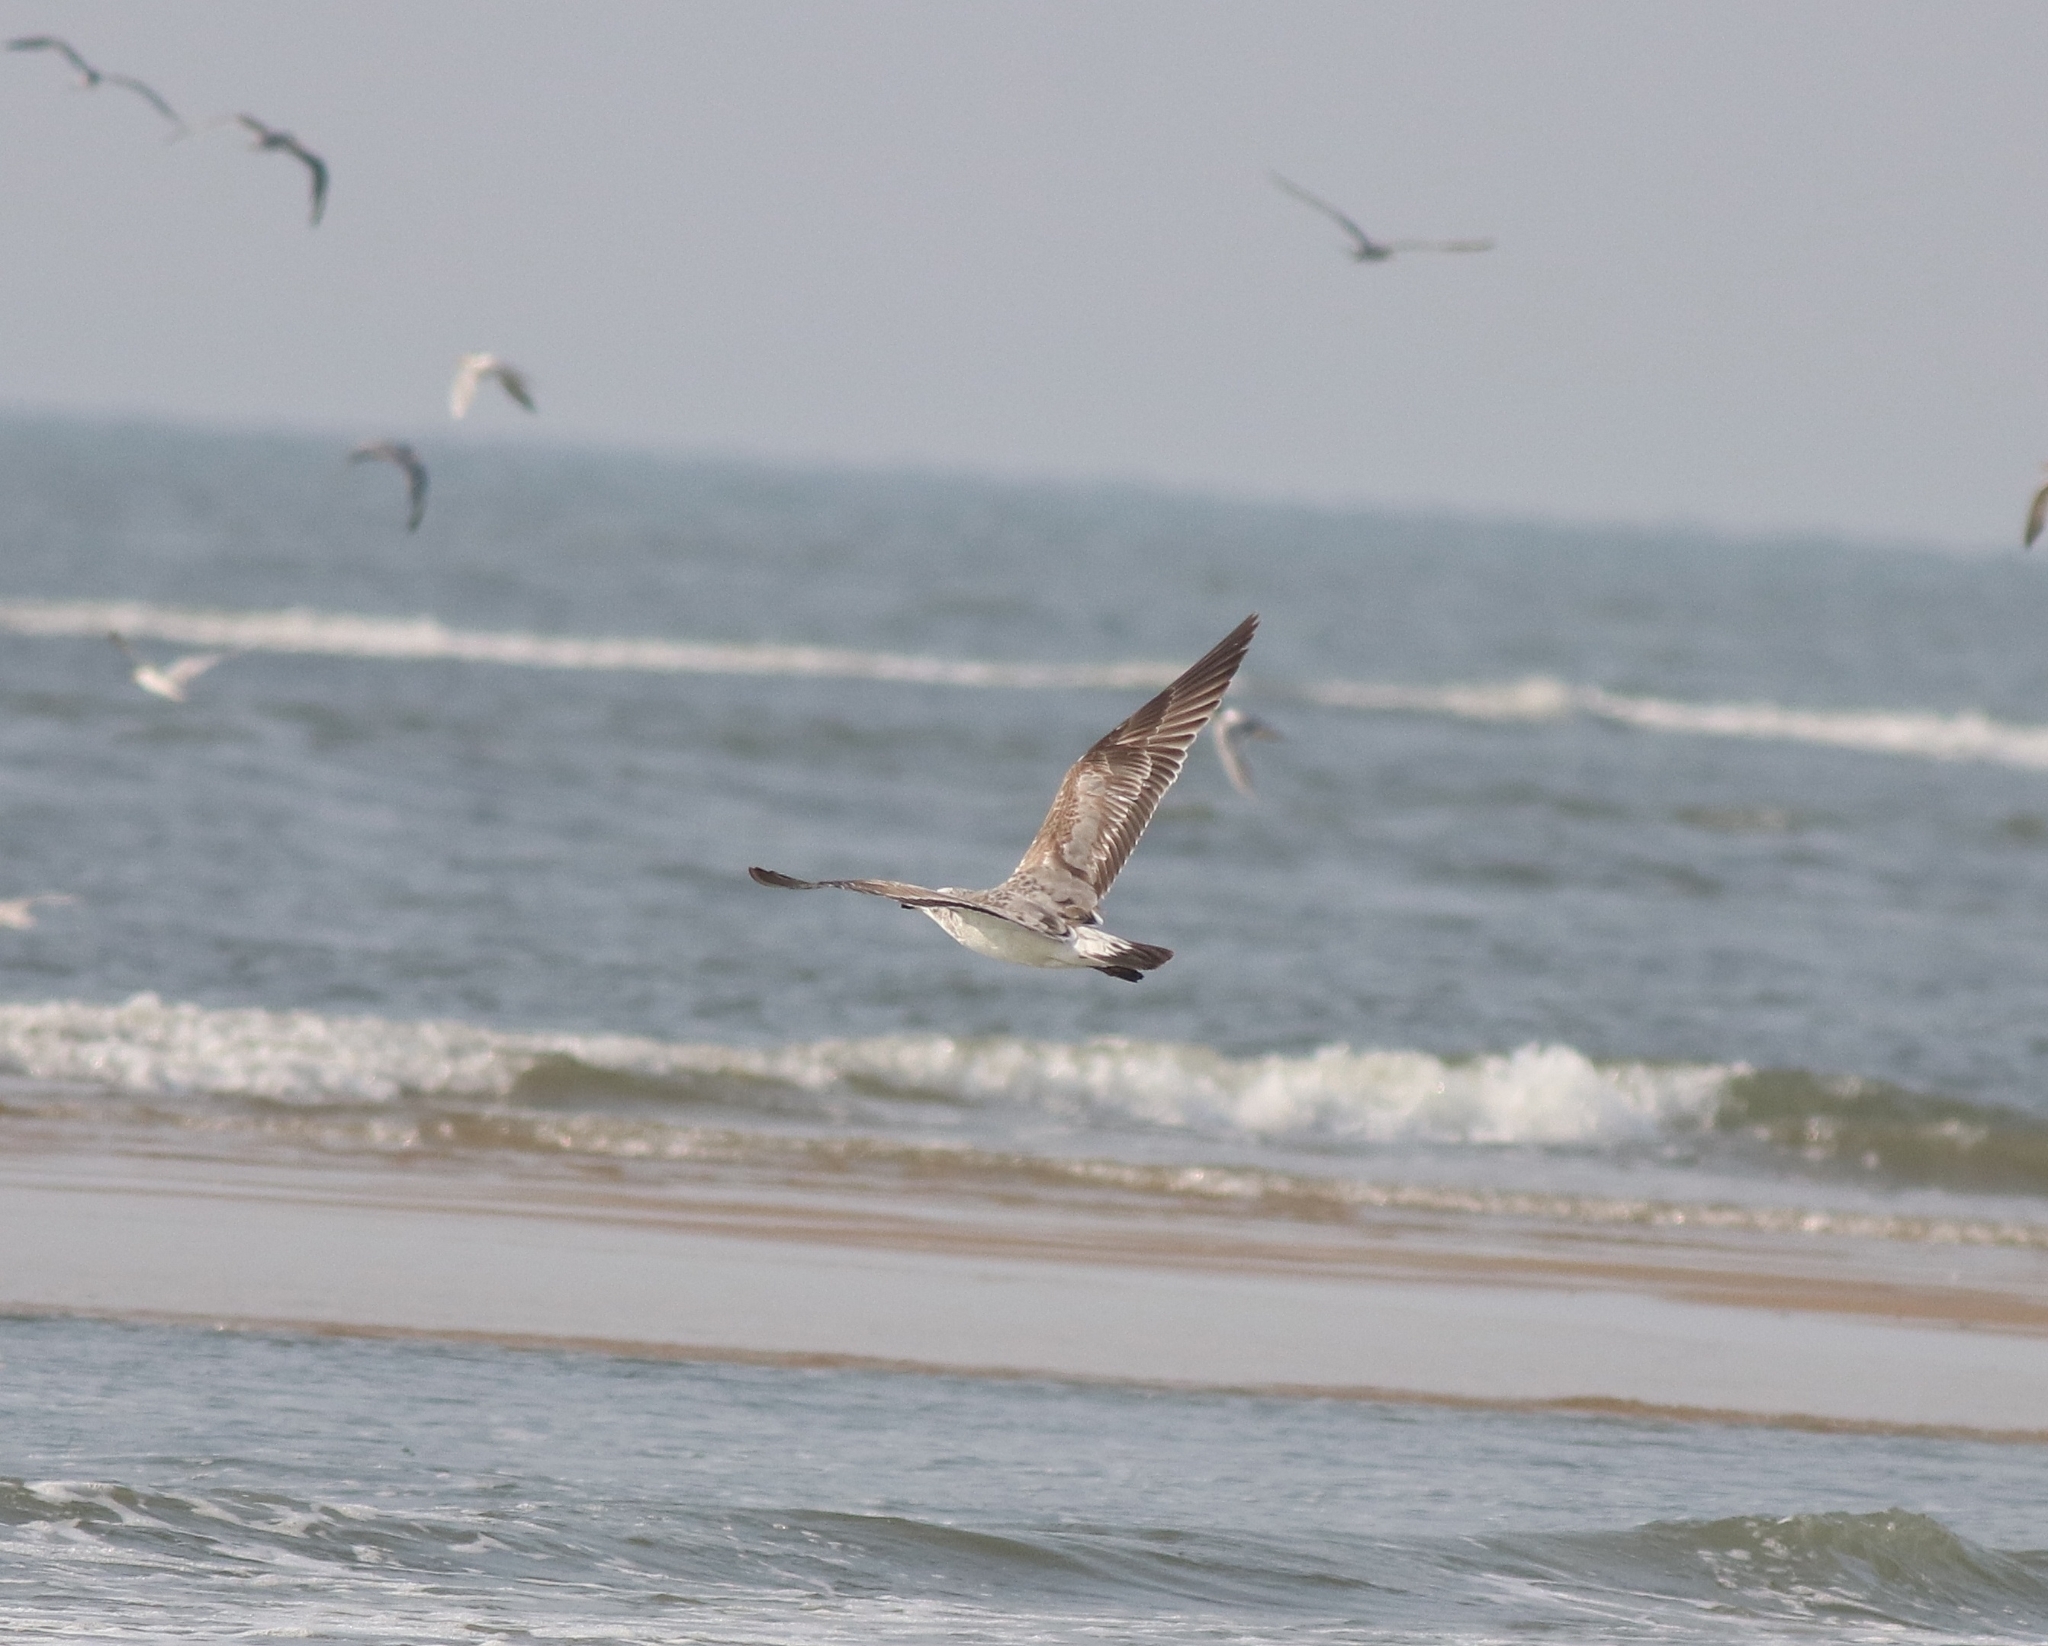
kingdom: Animalia
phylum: Chordata
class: Aves
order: Charadriiformes
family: Laridae
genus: Larus
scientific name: Larus fuscus
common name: Lesser black-backed gull
